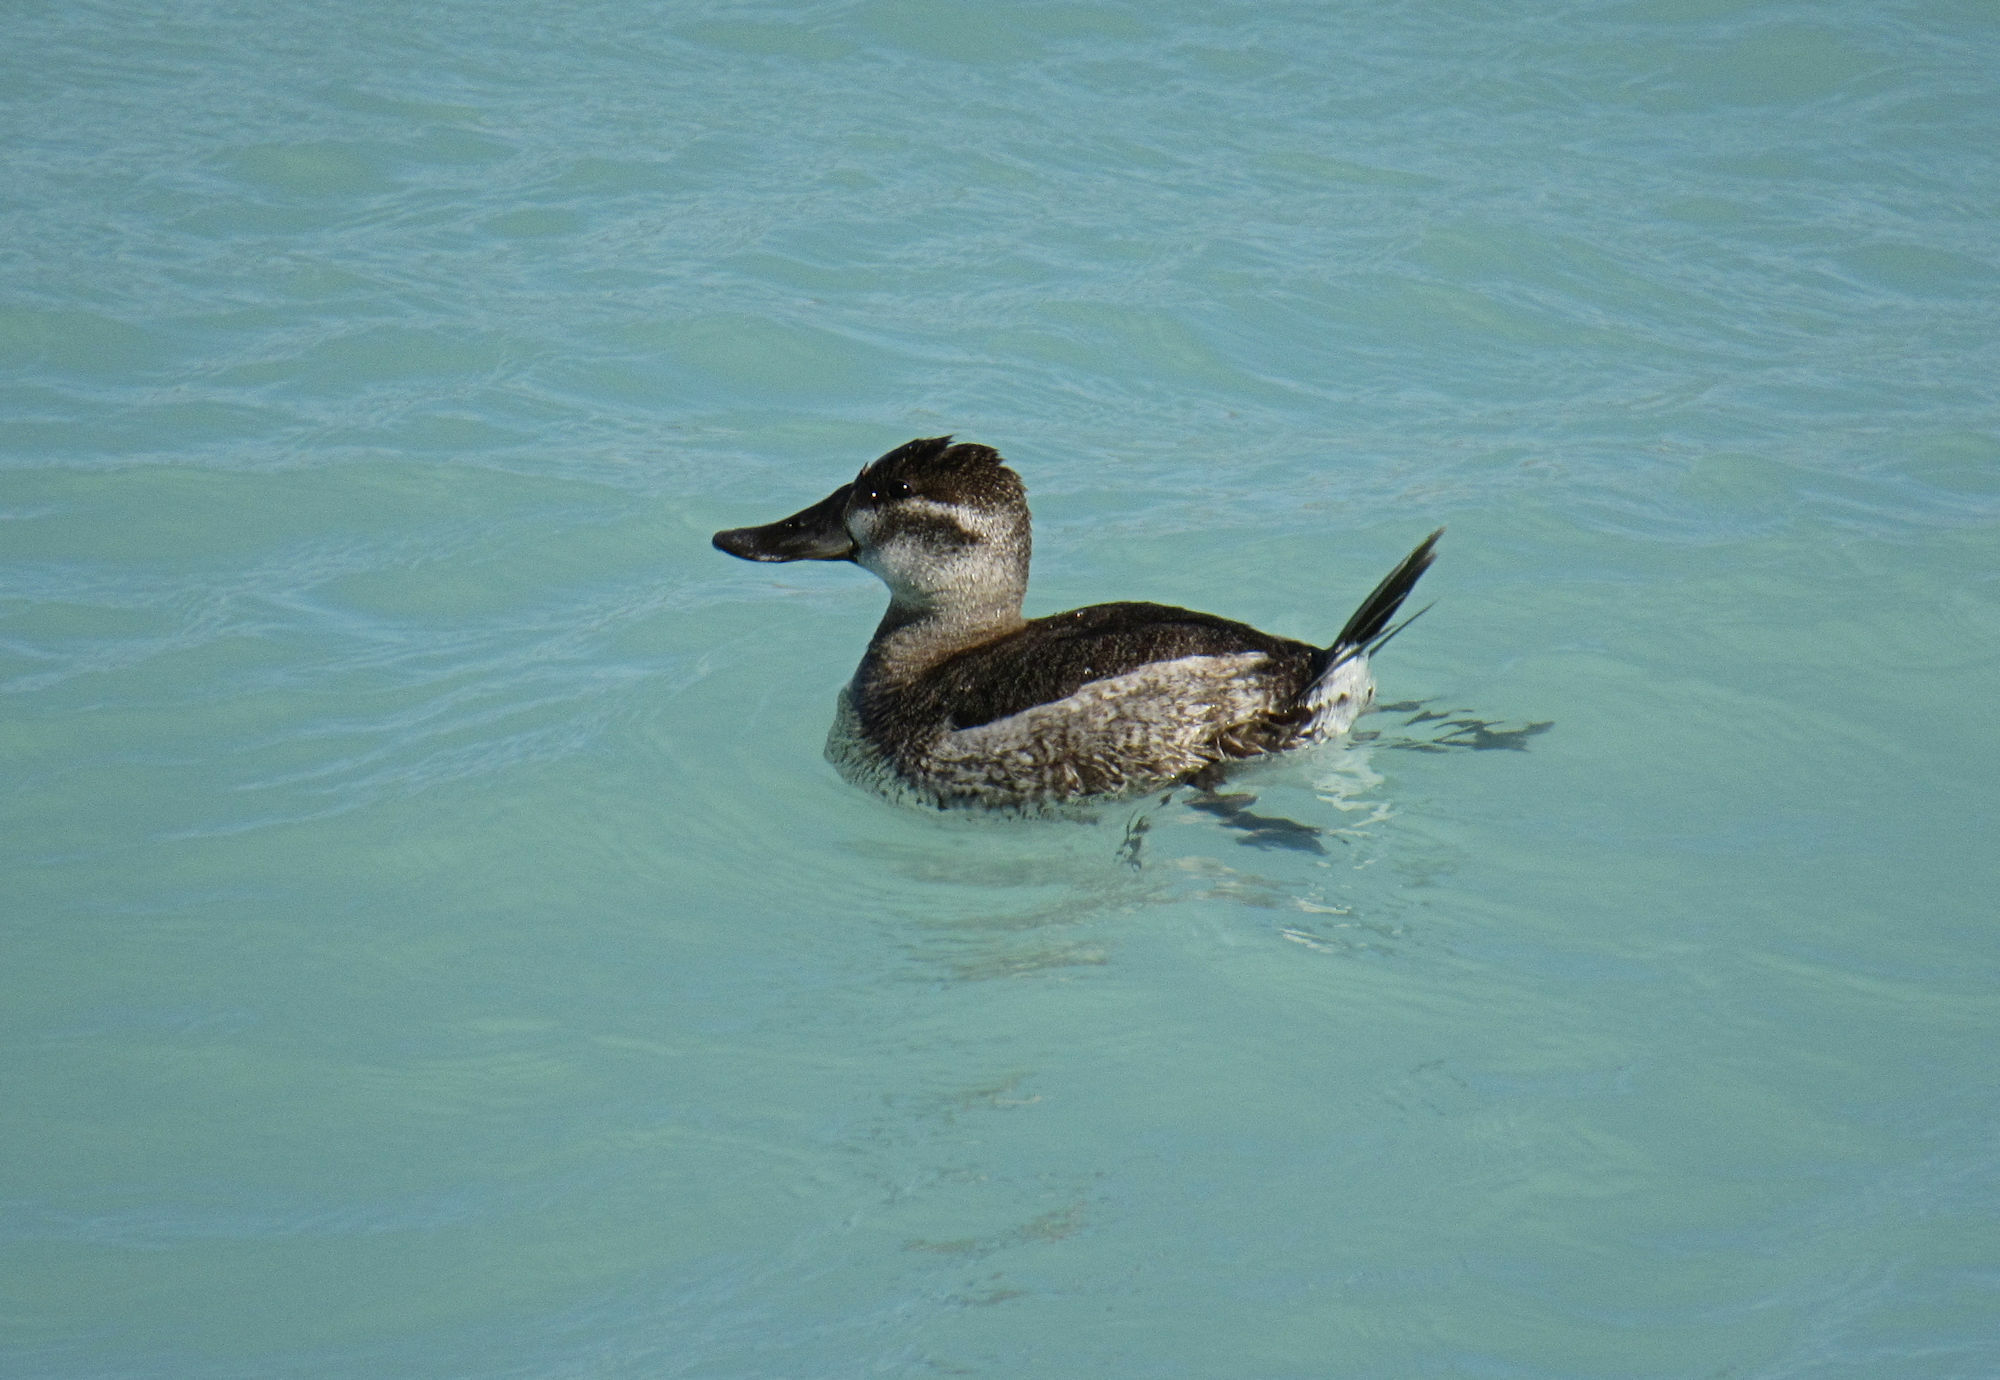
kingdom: Animalia
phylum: Chordata
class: Aves
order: Anseriformes
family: Anatidae
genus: Oxyura
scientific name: Oxyura jamaicensis
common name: Ruddy duck
